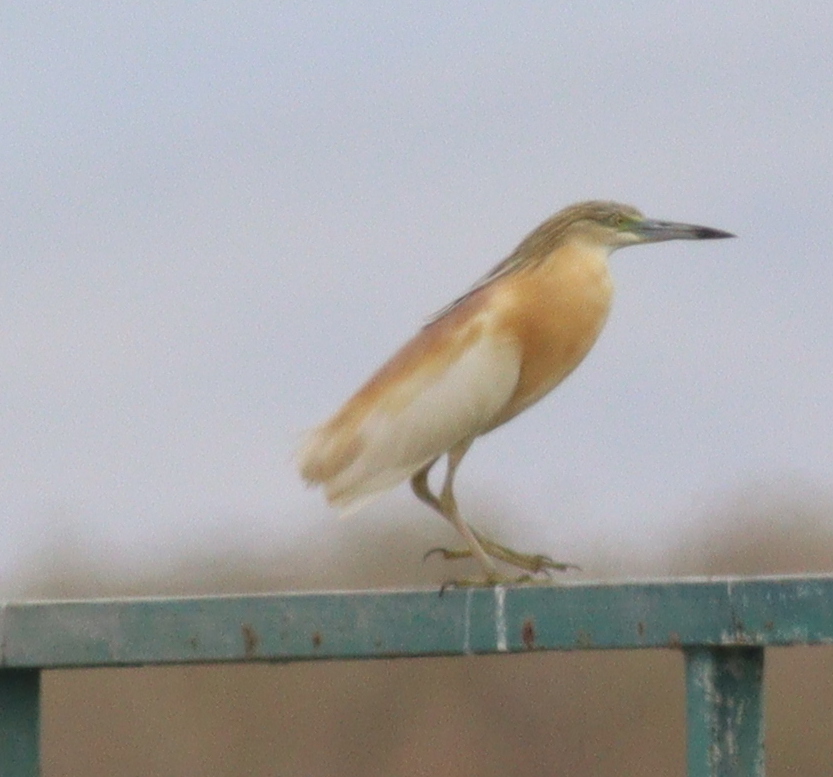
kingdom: Animalia
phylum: Chordata
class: Aves
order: Pelecaniformes
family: Ardeidae
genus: Ardeola
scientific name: Ardeola ralloides
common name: Squacco heron
